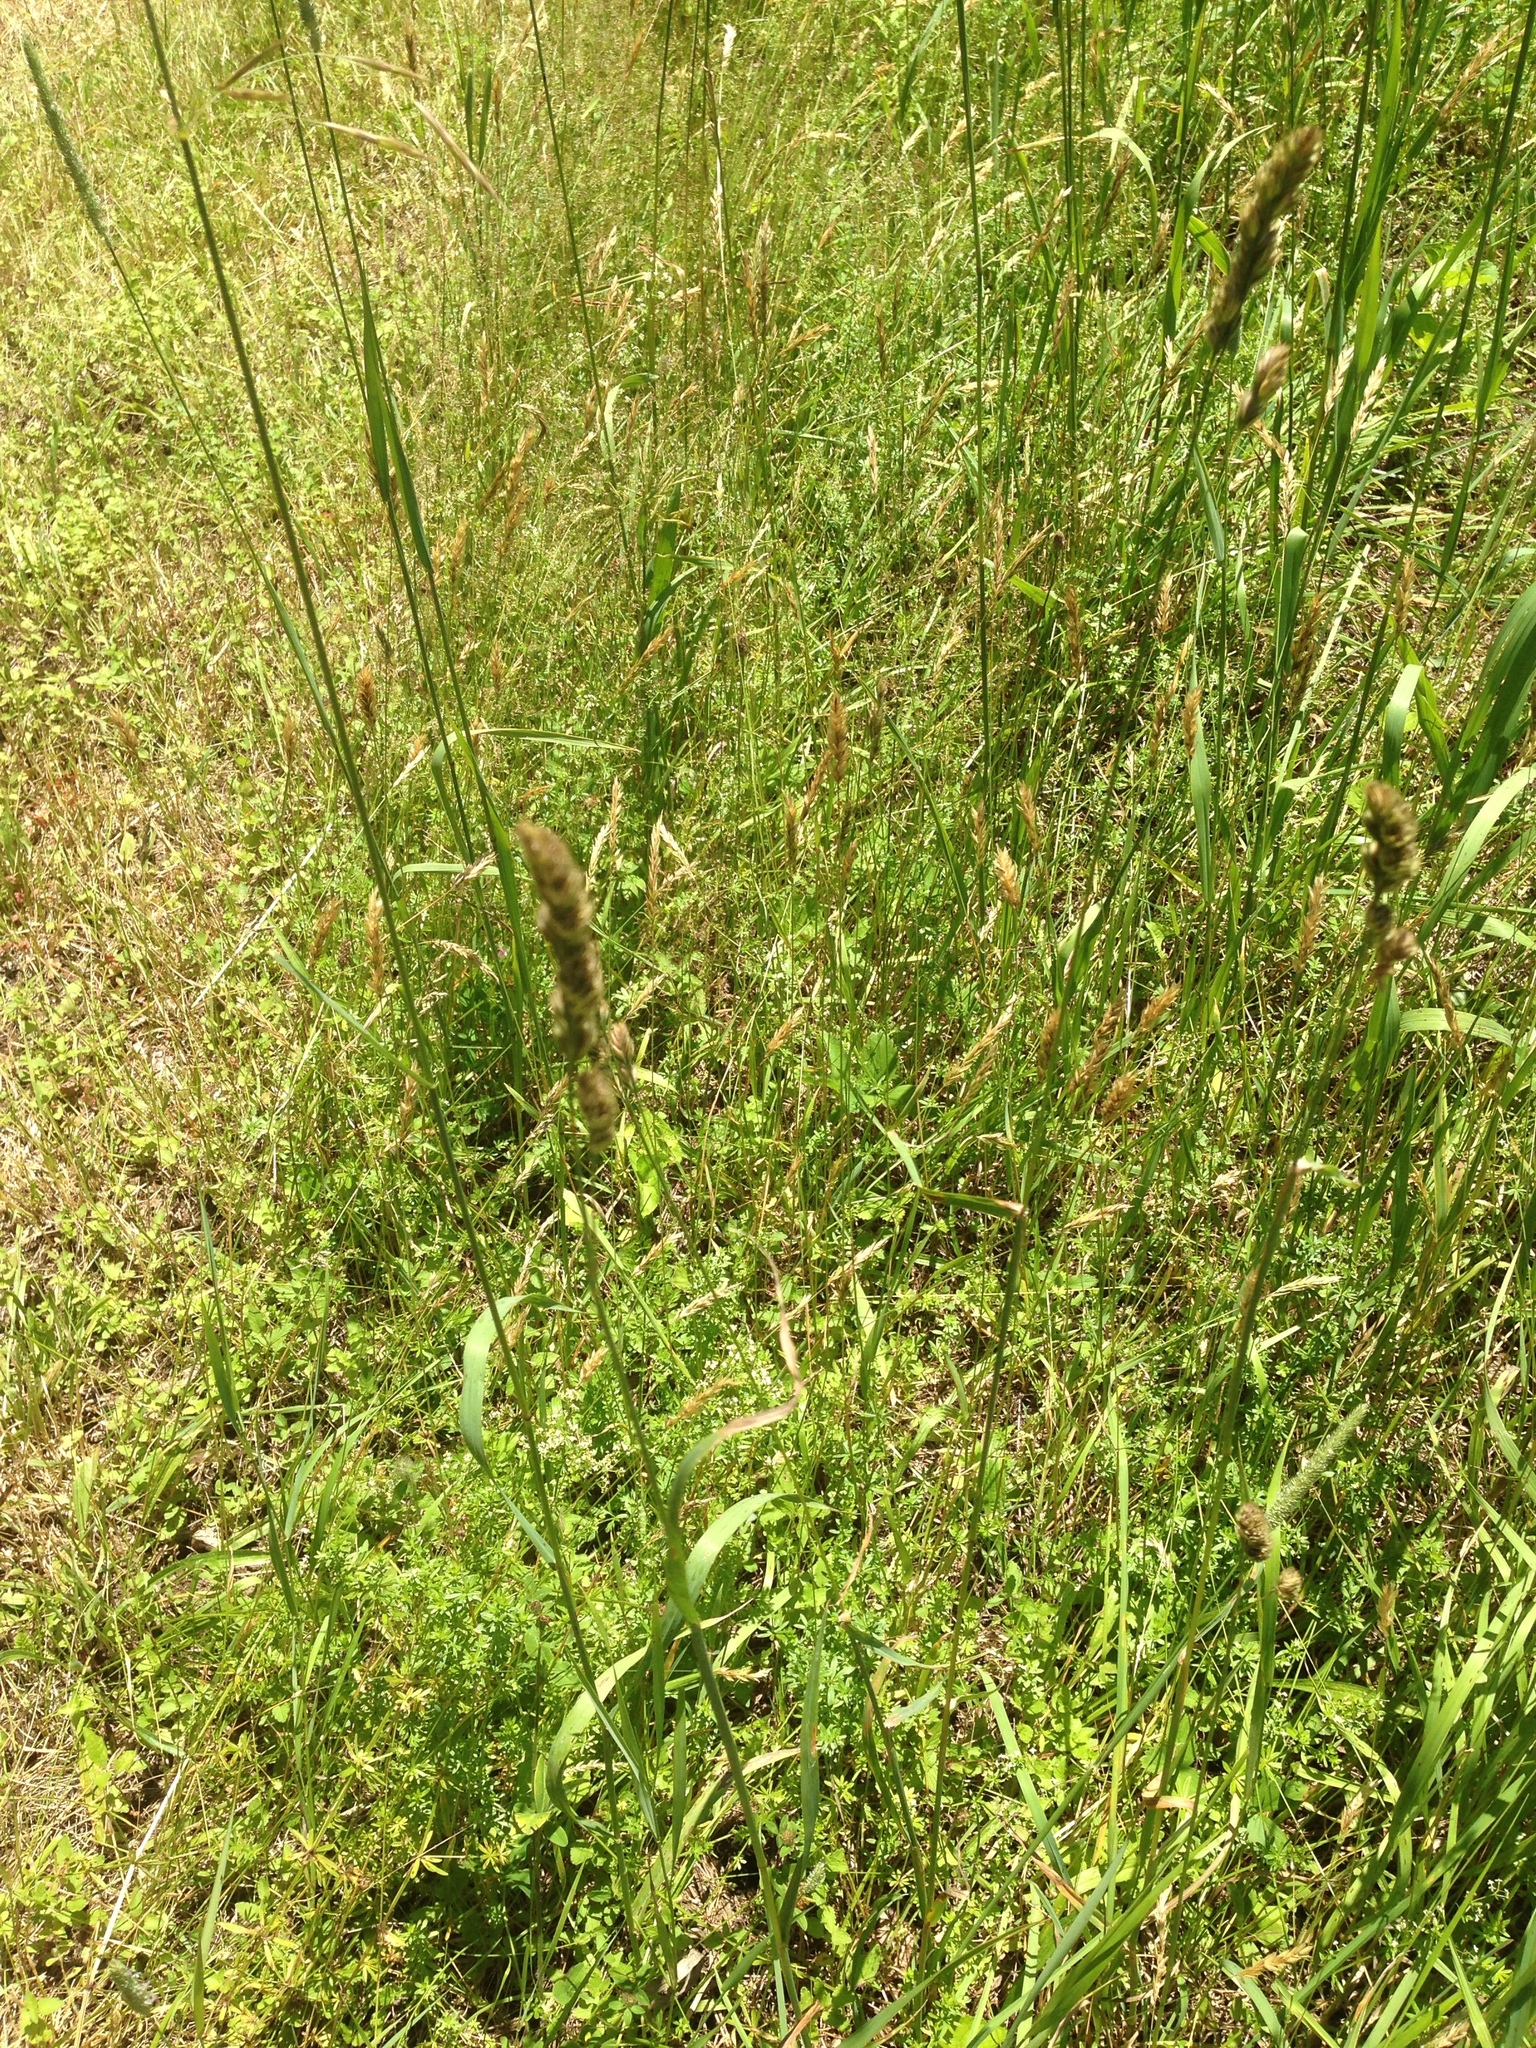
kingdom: Plantae
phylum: Tracheophyta
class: Liliopsida
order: Poales
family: Poaceae
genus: Dactylis
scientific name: Dactylis glomerata
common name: Orchardgrass
